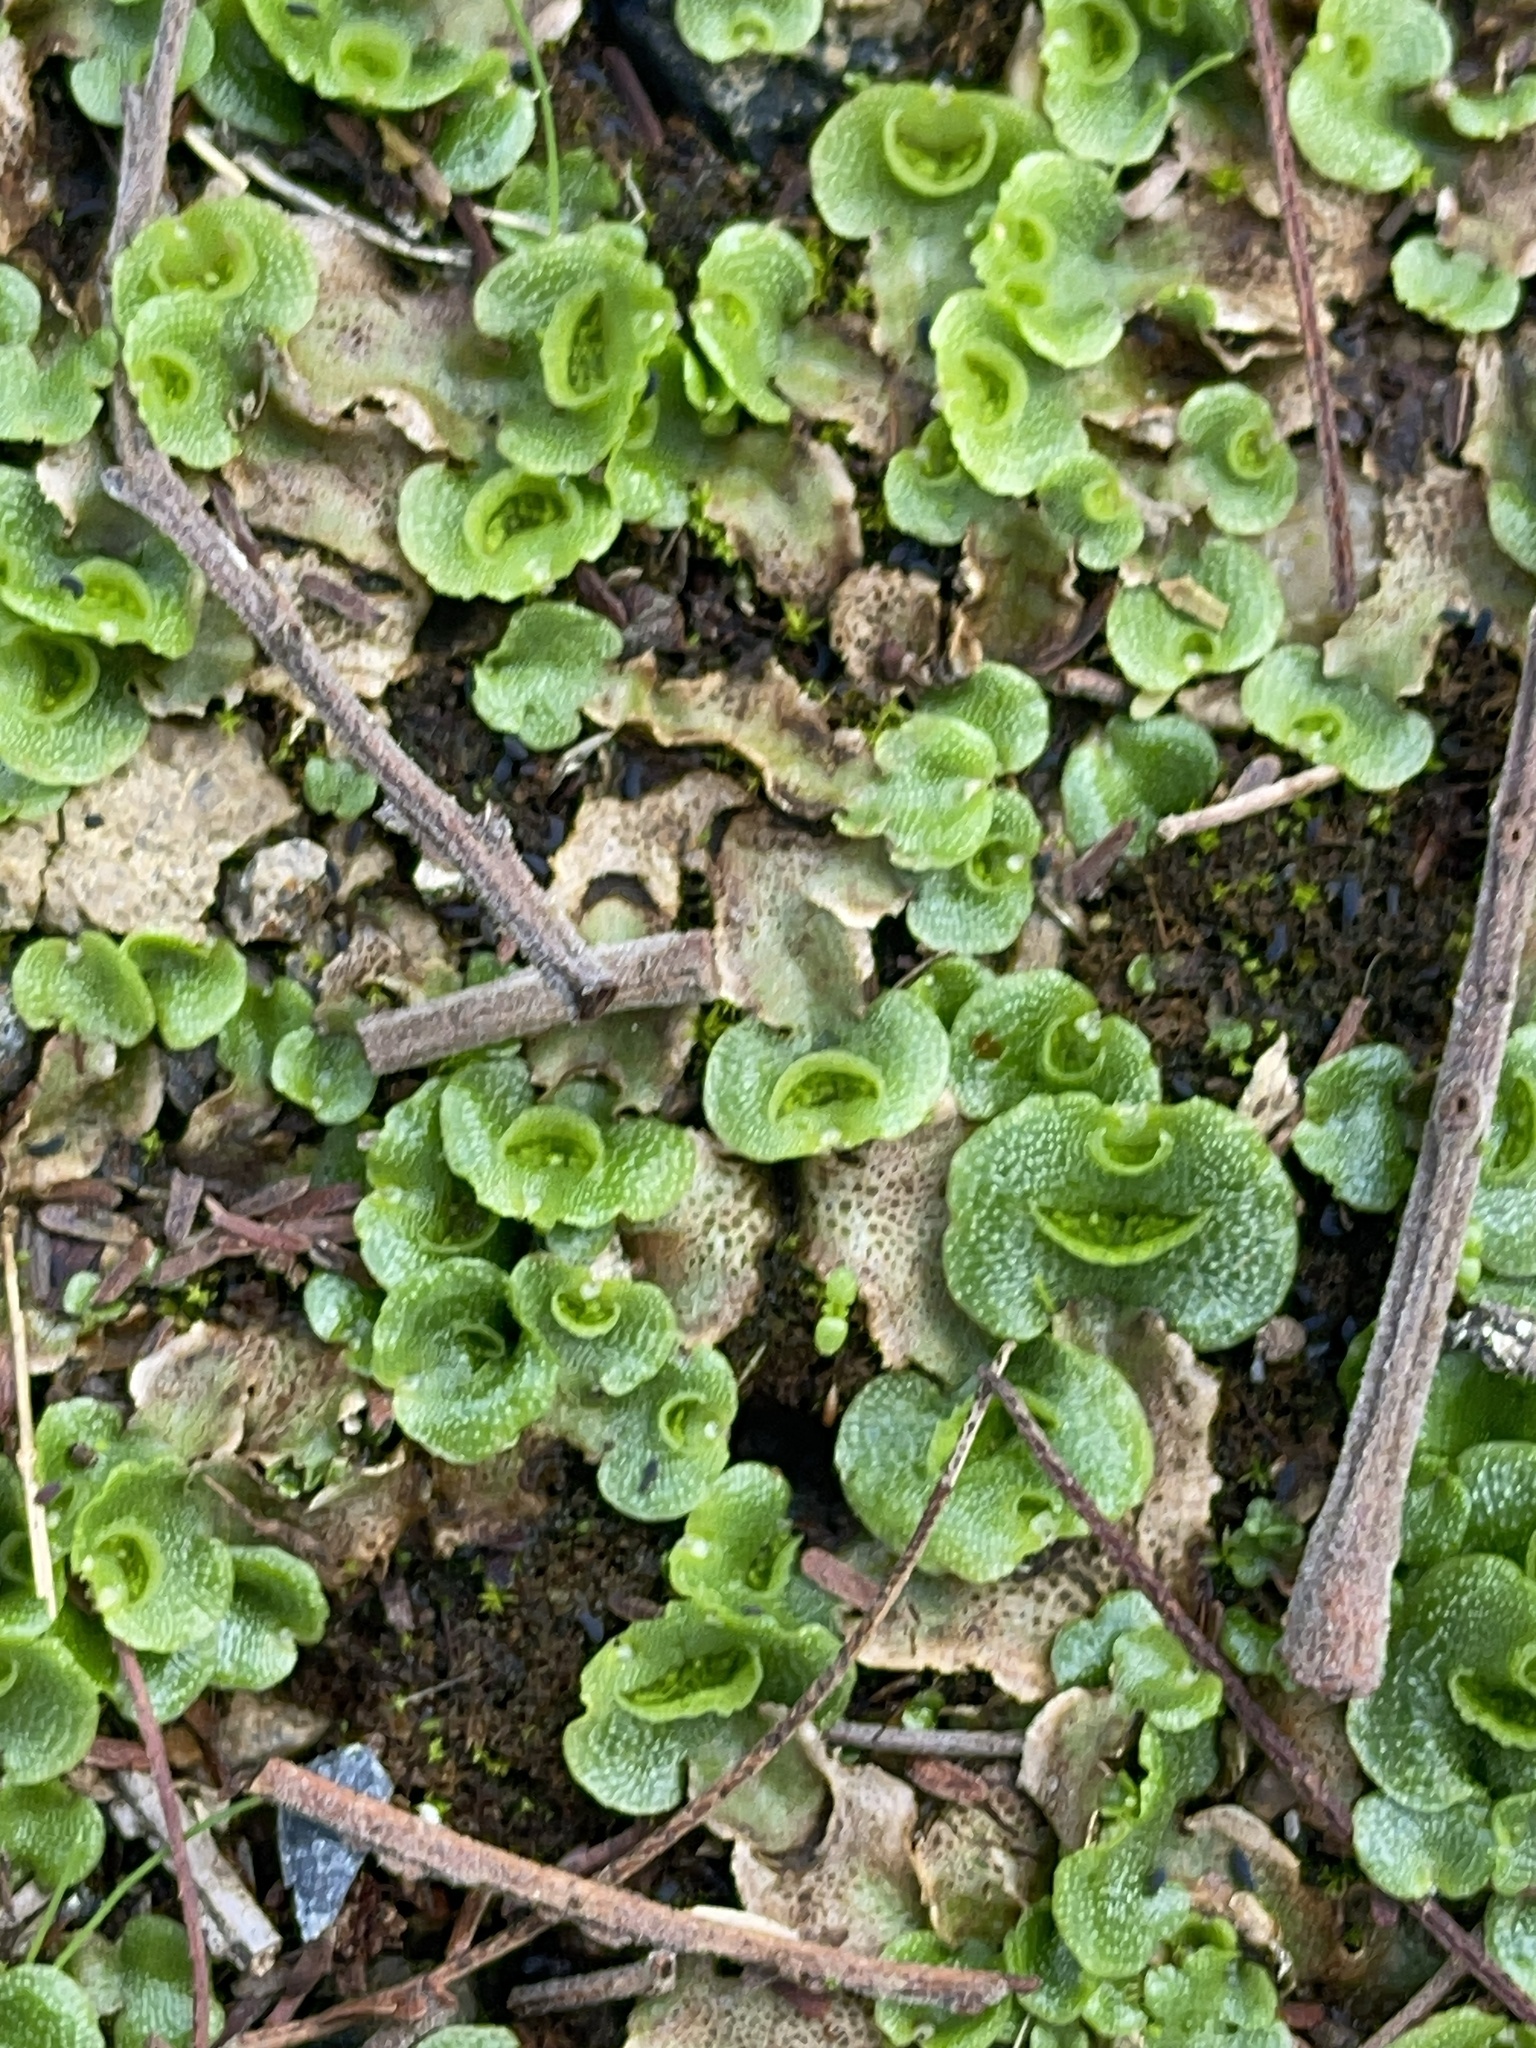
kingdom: Plantae
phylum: Marchantiophyta
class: Marchantiopsida
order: Lunulariales
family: Lunulariaceae
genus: Lunularia
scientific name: Lunularia cruciata
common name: Crescent-cup liverwort
